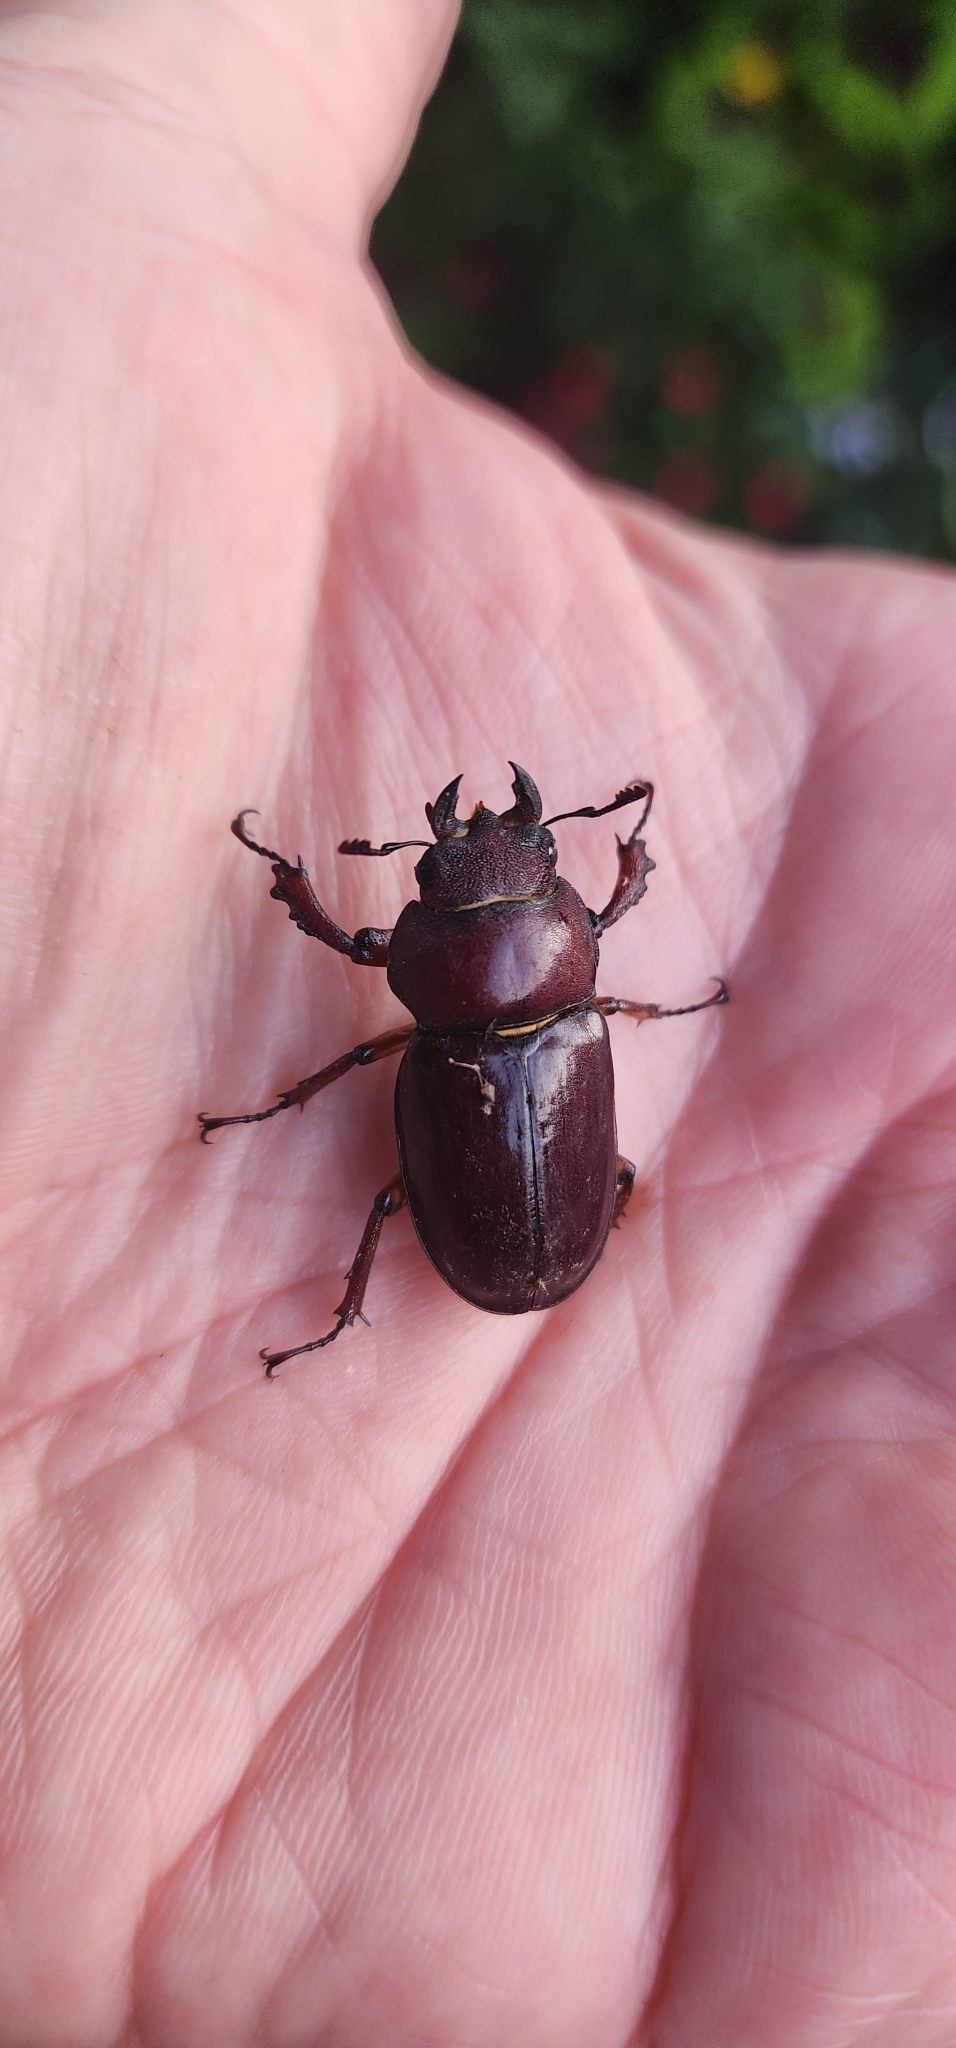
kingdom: Animalia
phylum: Arthropoda
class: Insecta
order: Coleoptera
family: Lucanidae
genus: Lucanus
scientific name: Lucanus capreolus
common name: Stag beetle
